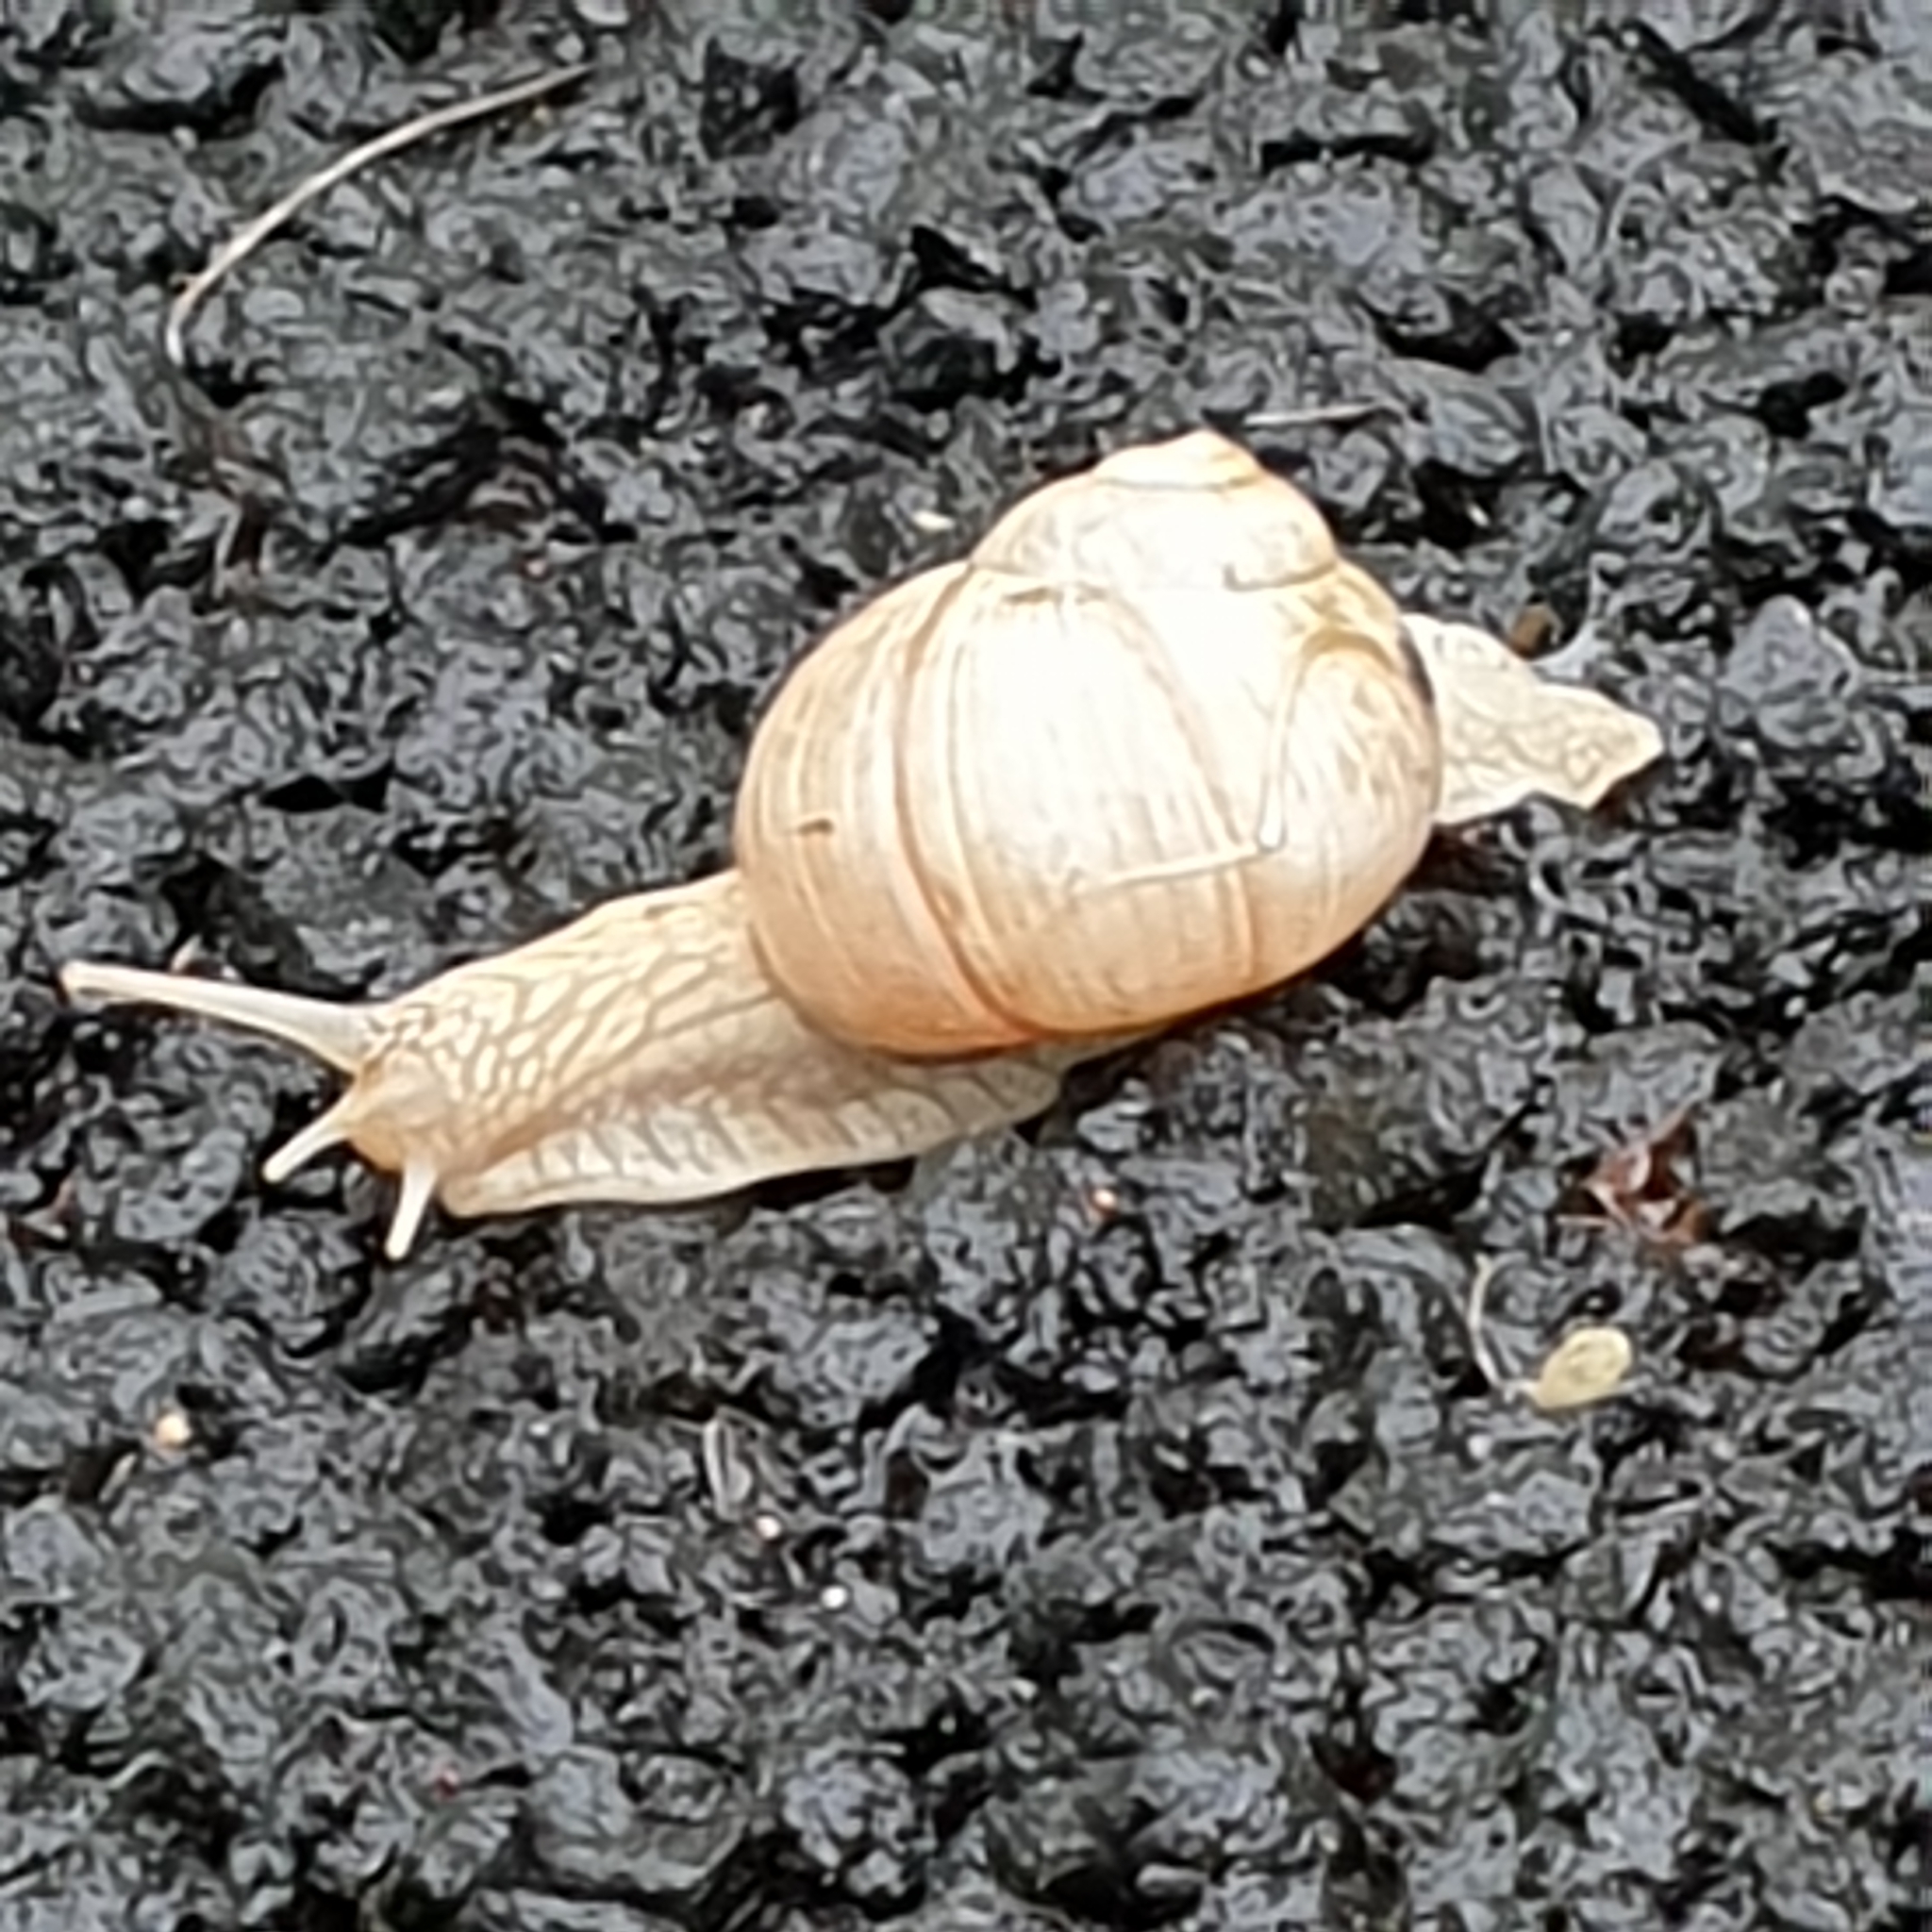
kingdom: Animalia
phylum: Mollusca
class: Gastropoda
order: Stylommatophora
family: Helicidae
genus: Helix
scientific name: Helix pomatia
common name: Roman snail
